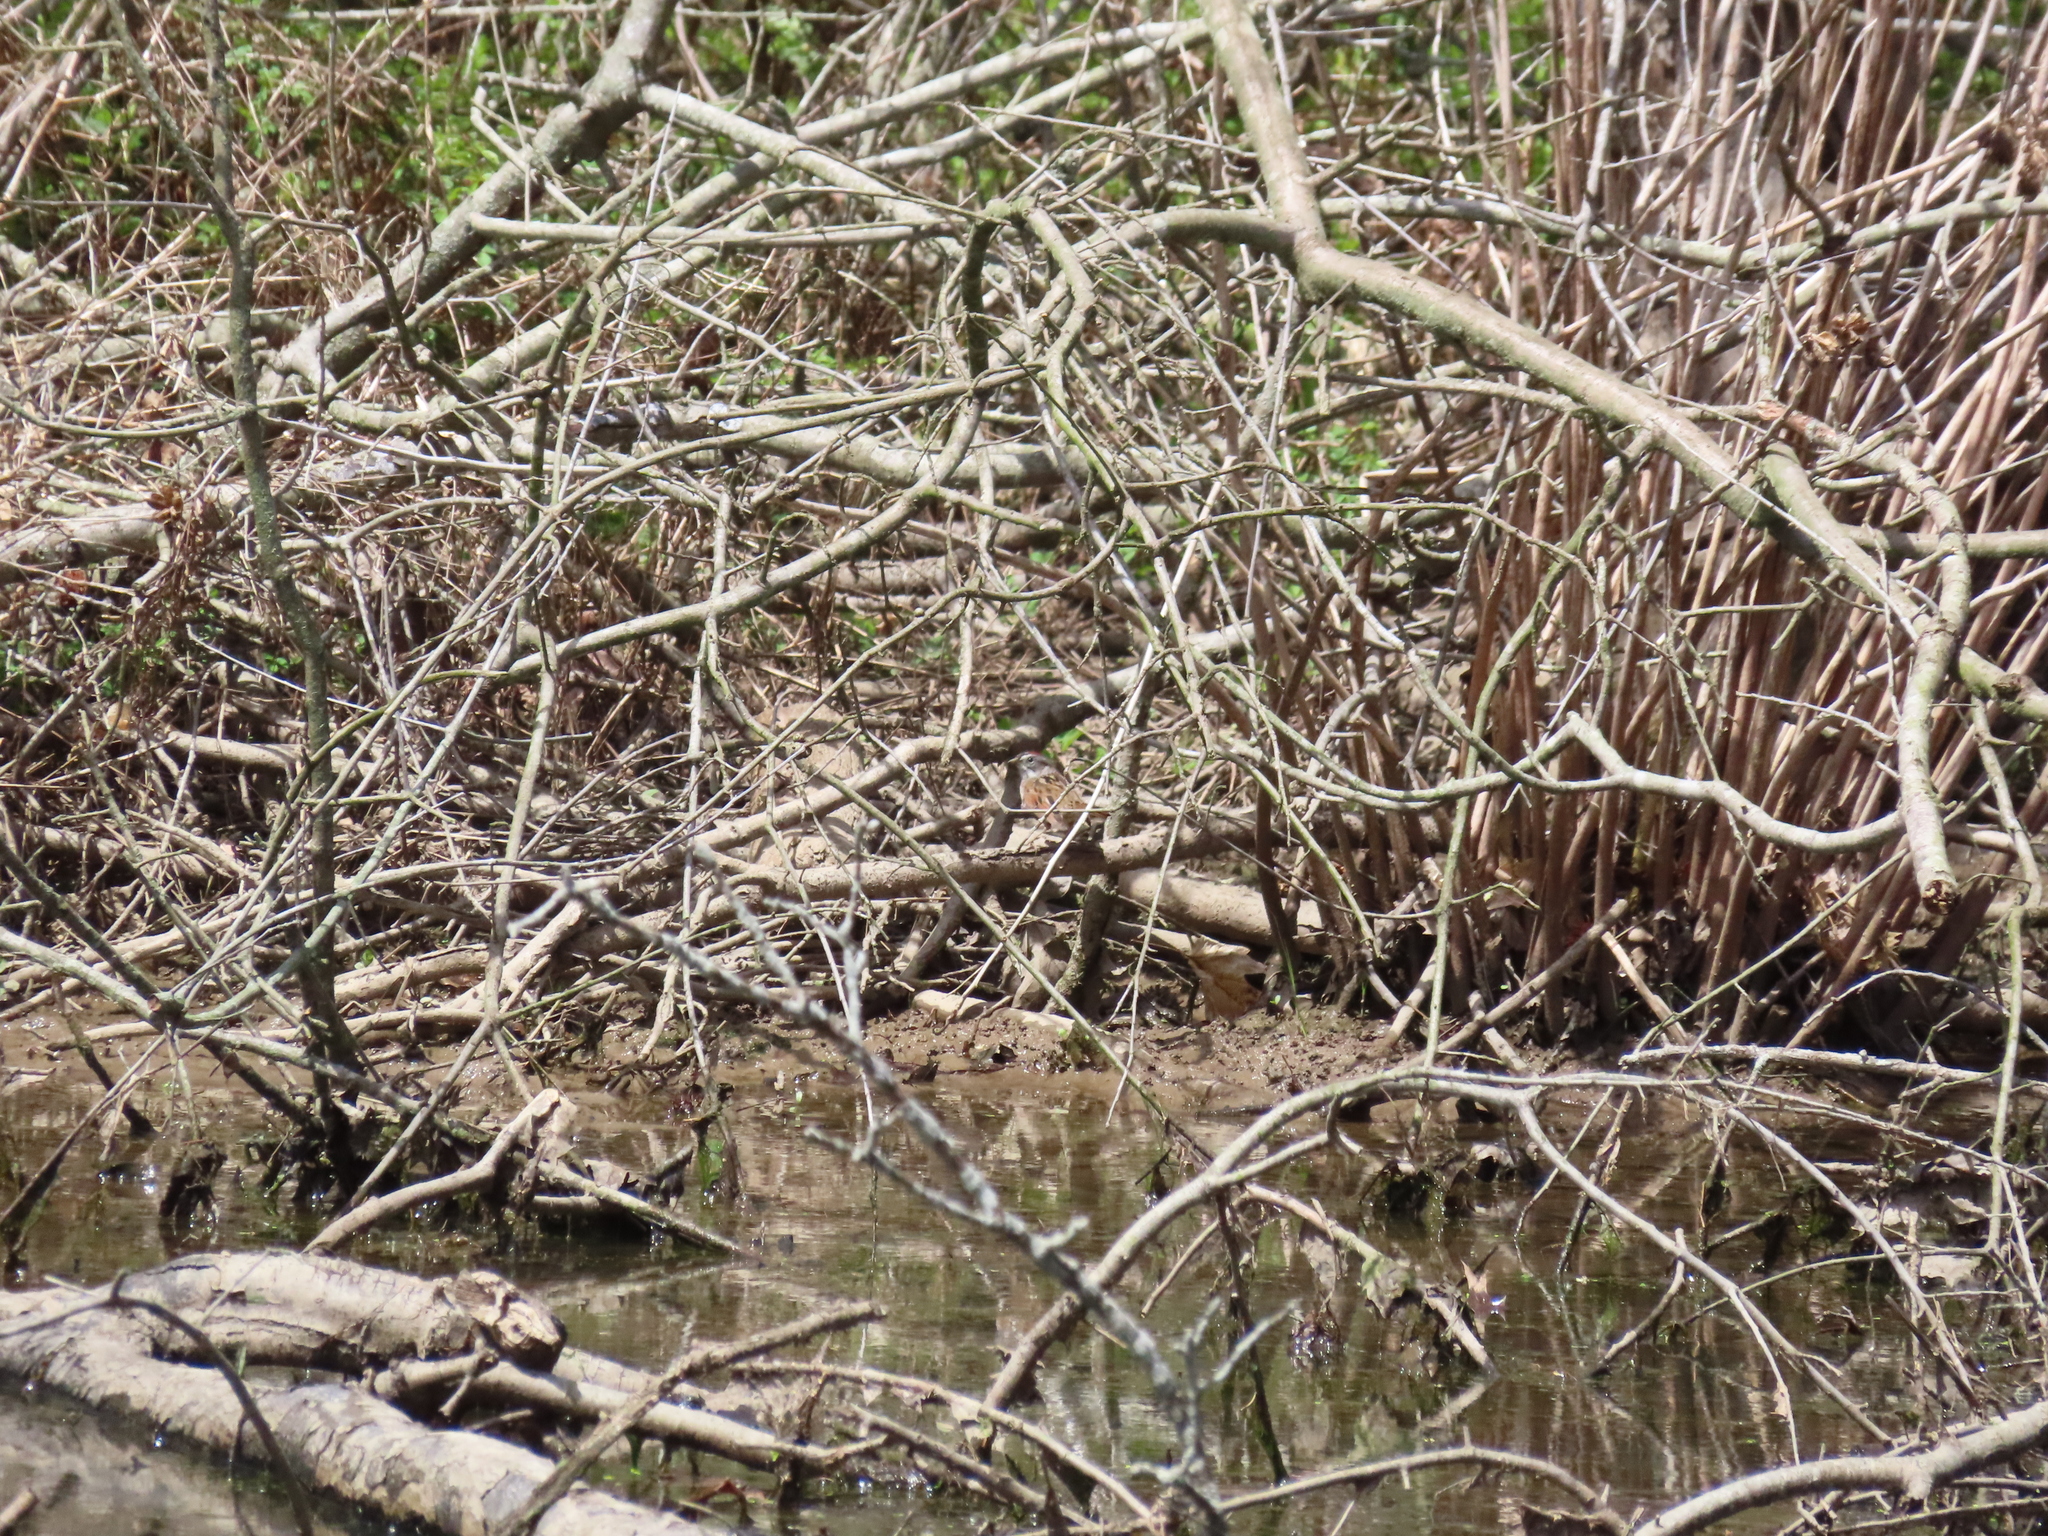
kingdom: Animalia
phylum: Chordata
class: Aves
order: Passeriformes
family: Passerellidae
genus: Melospiza
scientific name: Melospiza georgiana
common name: Swamp sparrow
